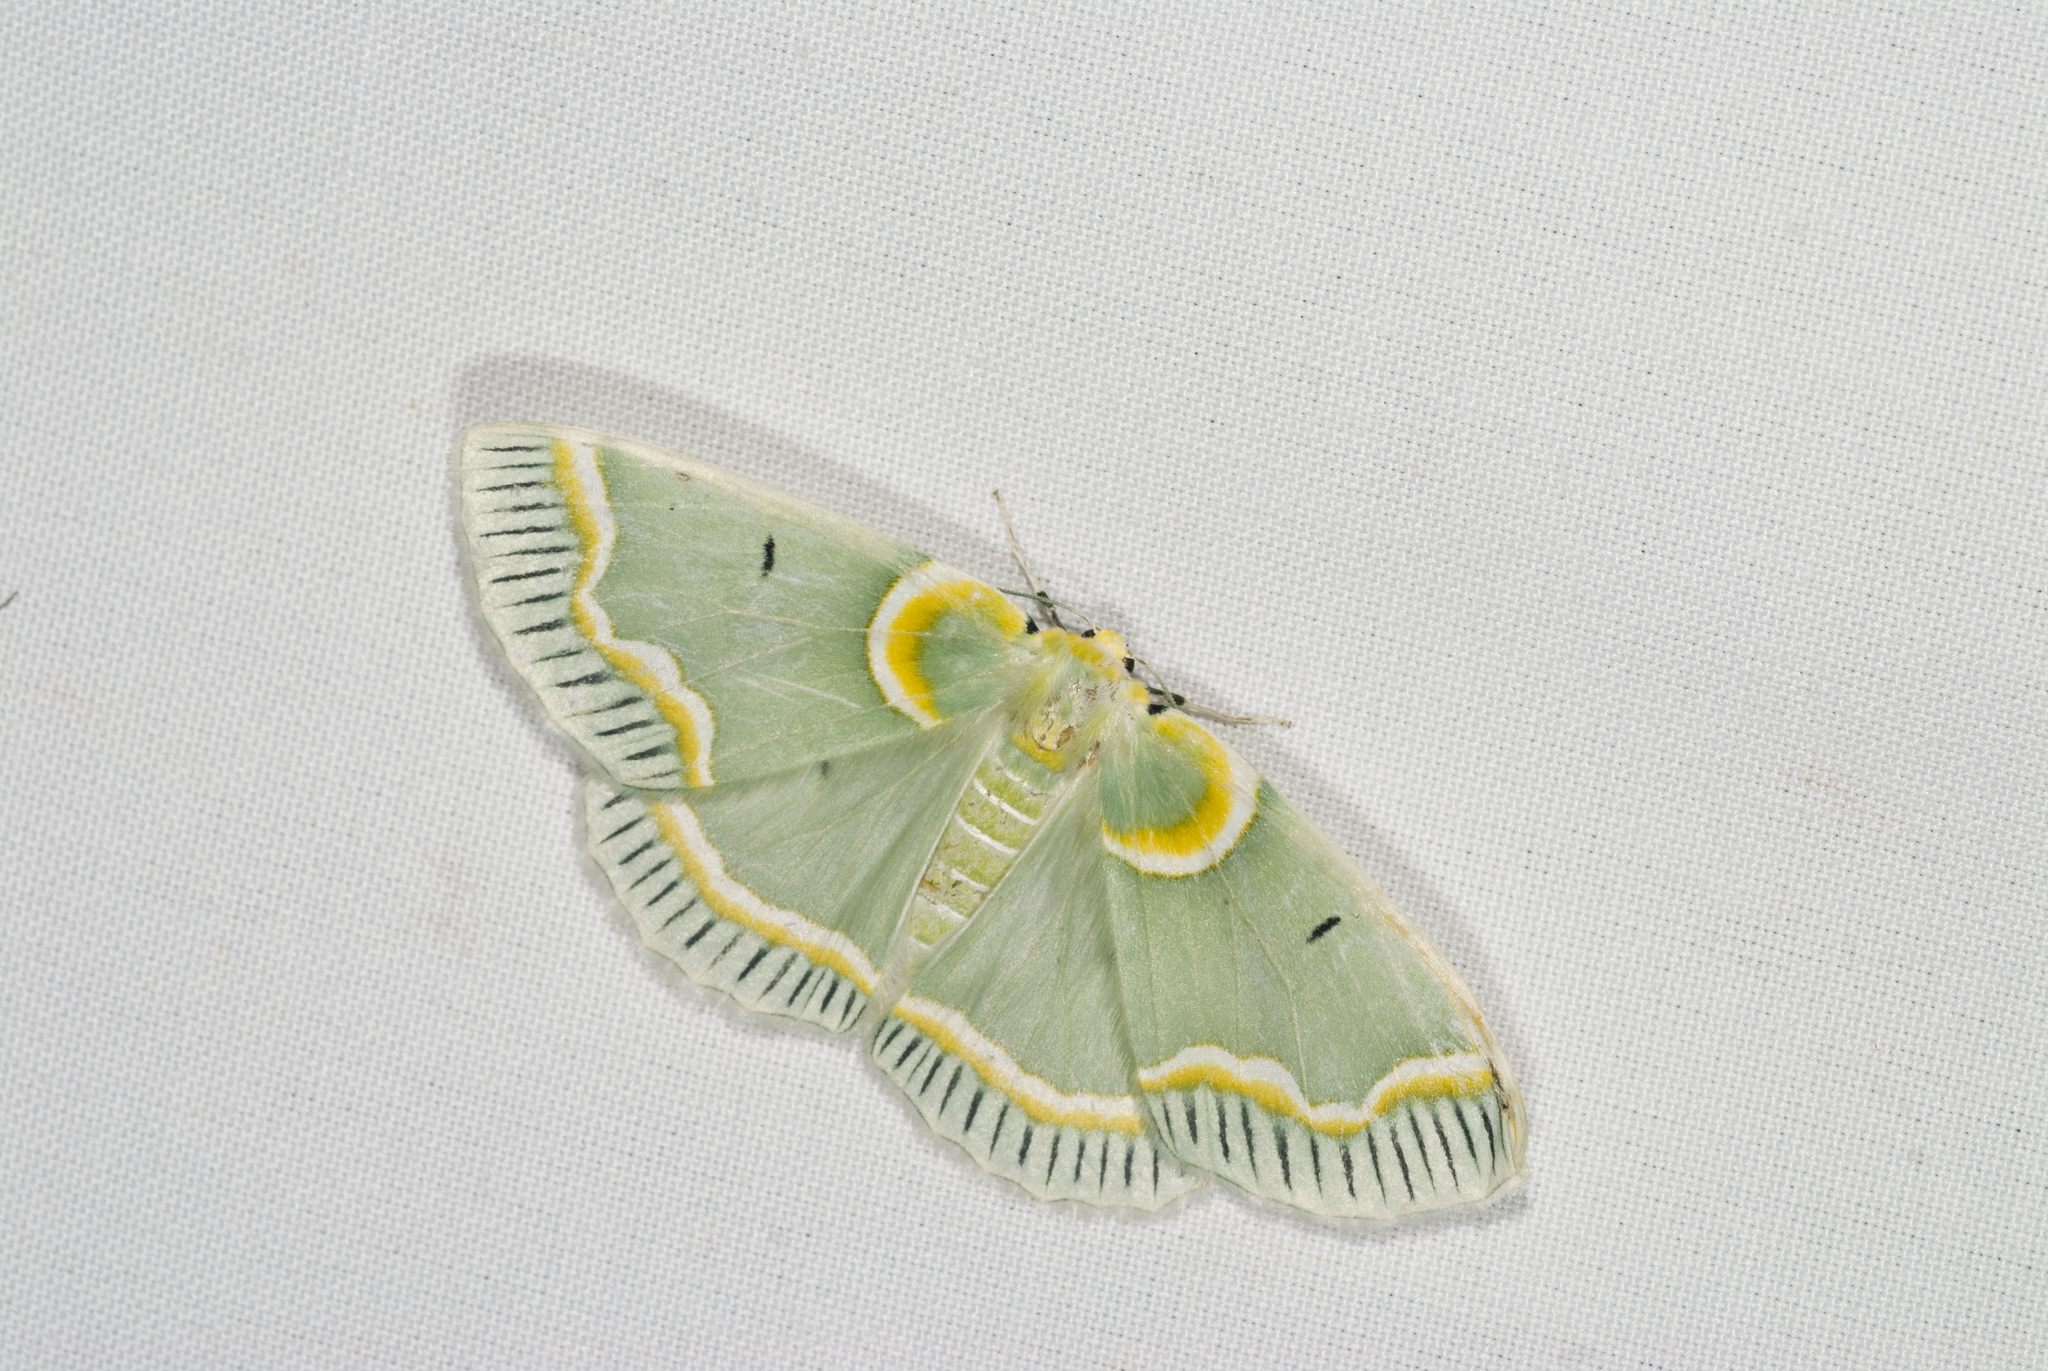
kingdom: Animalia
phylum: Arthropoda
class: Insecta
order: Lepidoptera
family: Geometridae
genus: Iotaphora
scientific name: Iotaphora admirabilis
